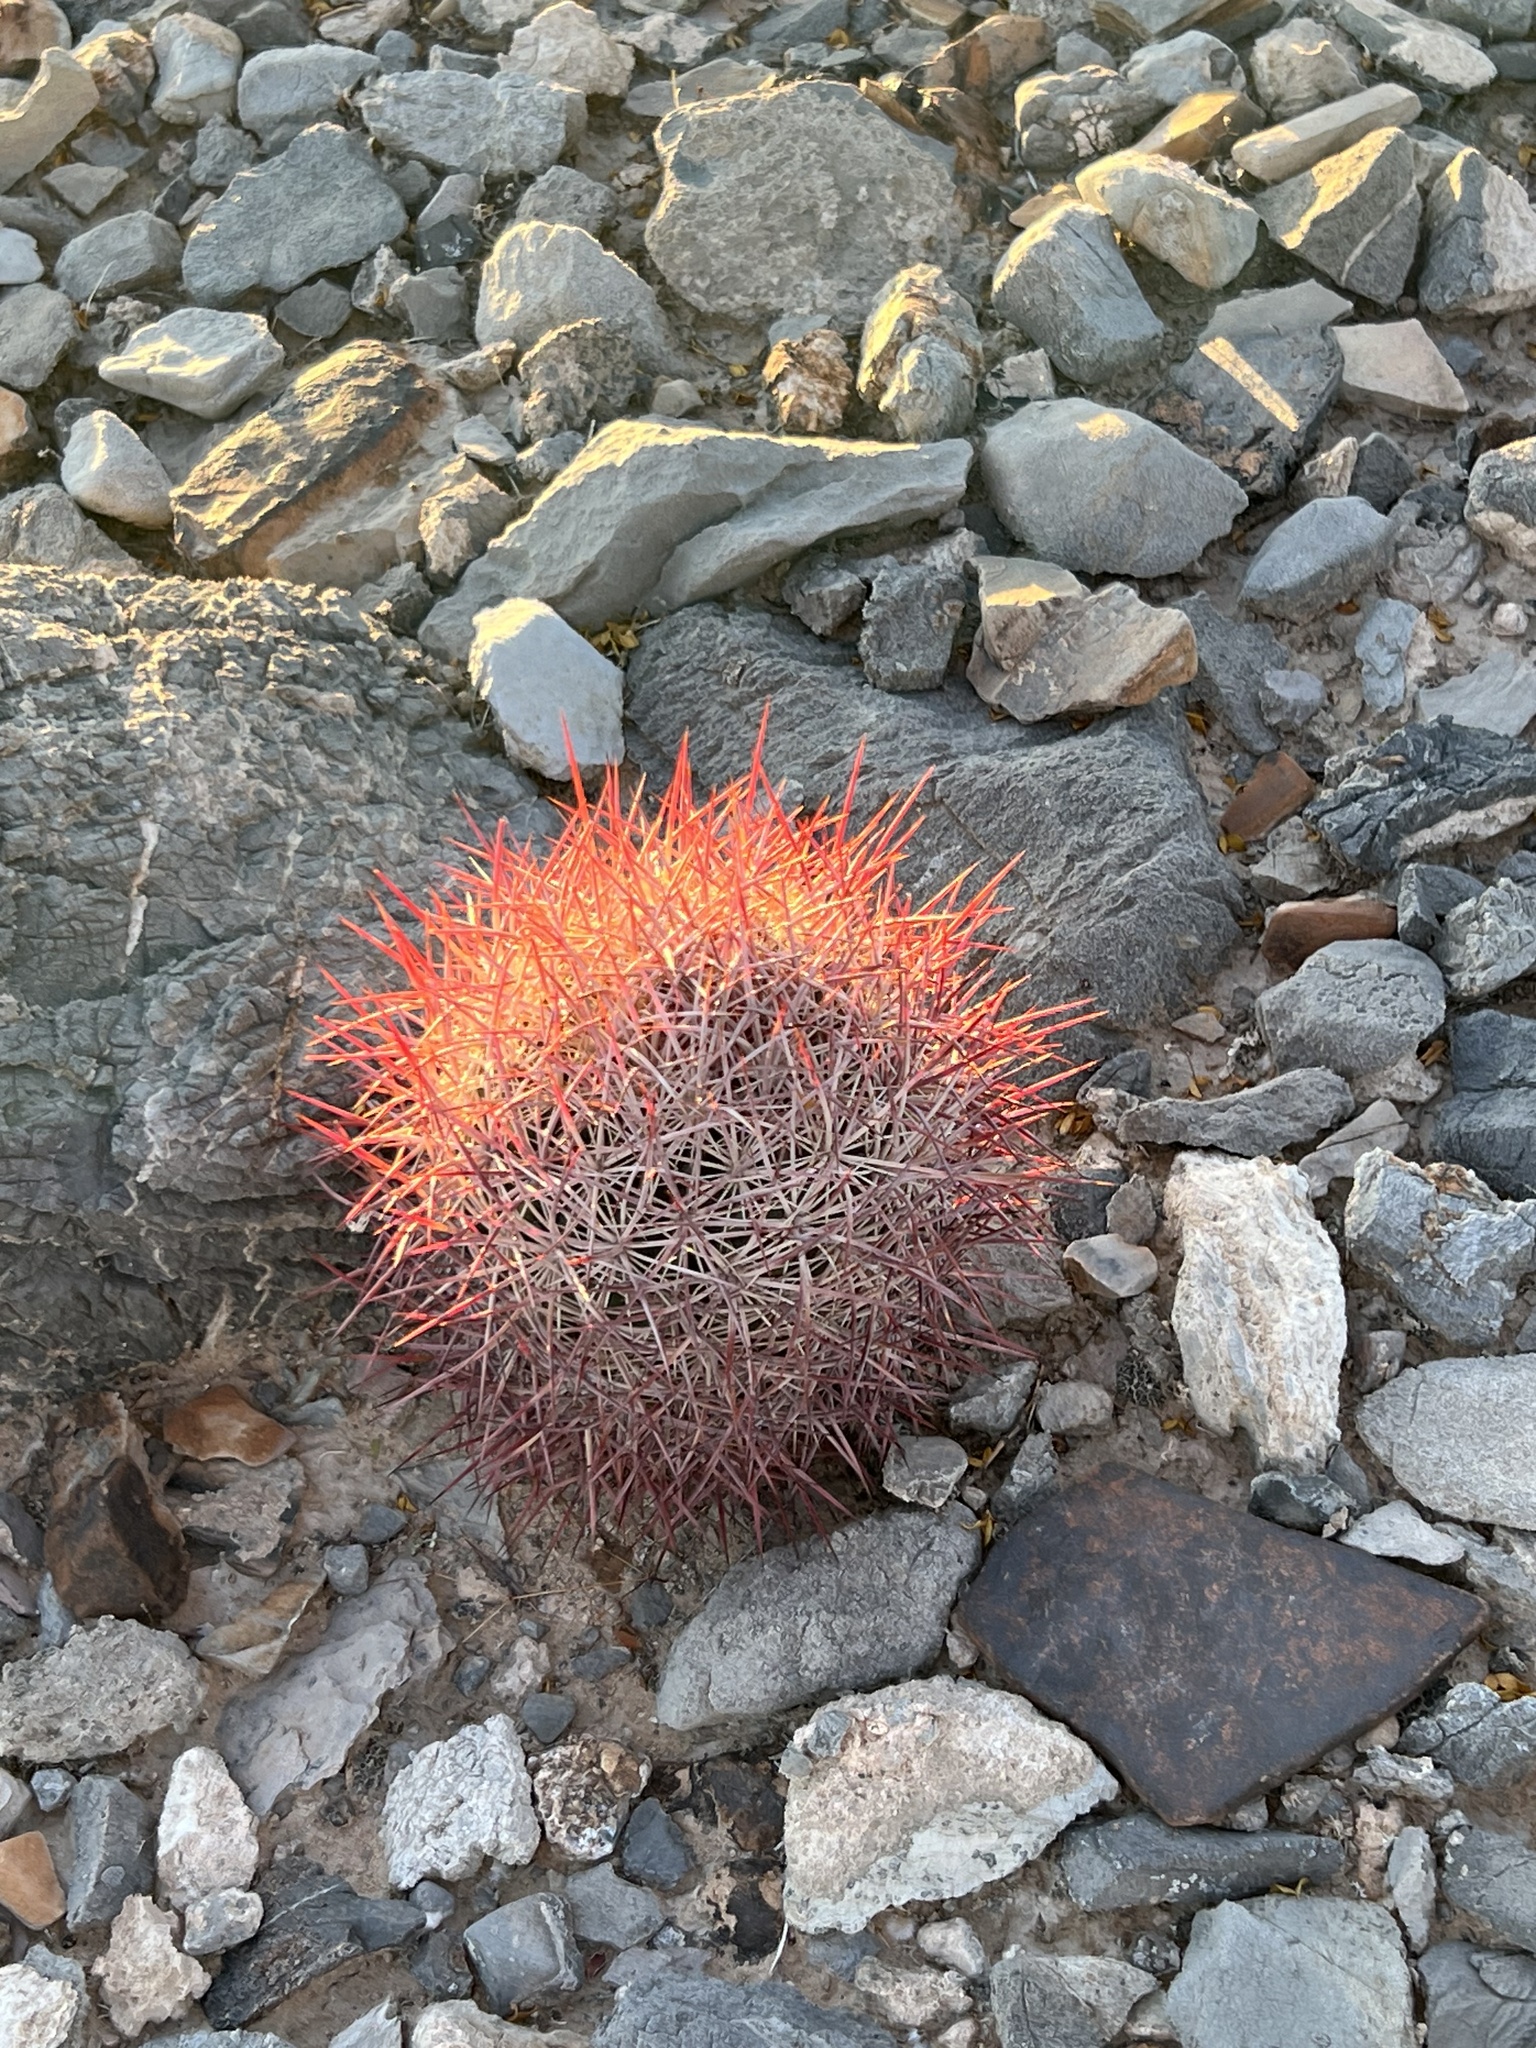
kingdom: Plantae
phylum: Tracheophyta
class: Magnoliopsida
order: Caryophyllales
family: Cactaceae
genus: Sclerocactus
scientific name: Sclerocactus johnsonii
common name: Eight-spine fishhook cactus
